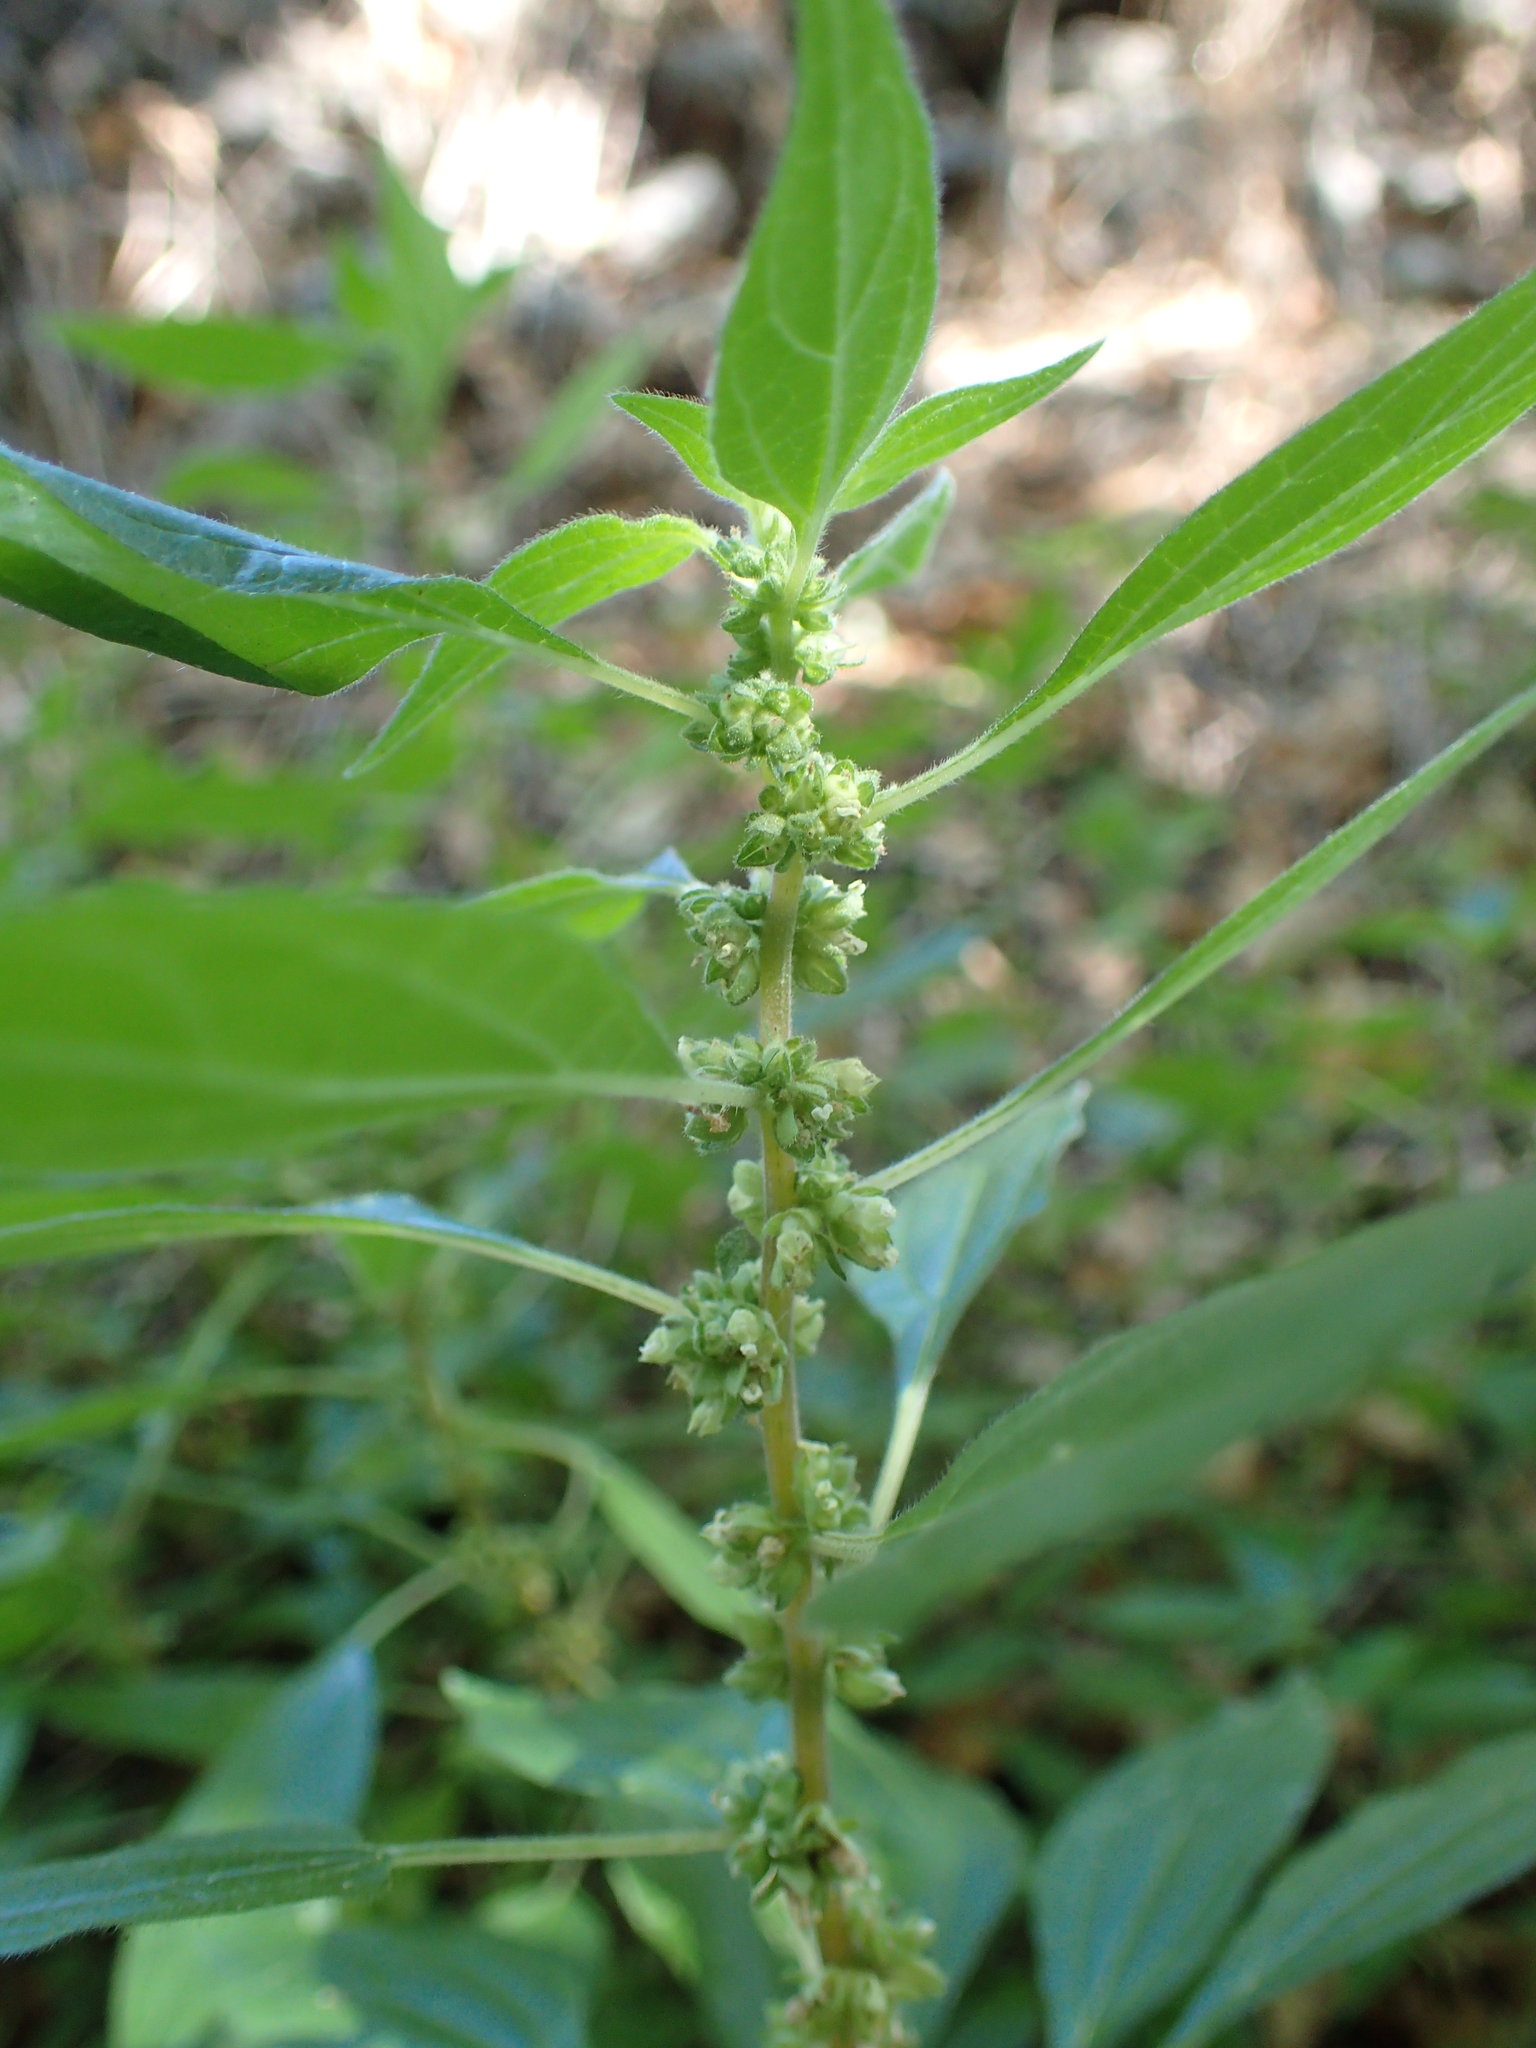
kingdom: Plantae
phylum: Tracheophyta
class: Magnoliopsida
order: Rosales
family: Urticaceae
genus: Parietaria
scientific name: Parietaria judaica
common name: Pellitory-of-the-wall
